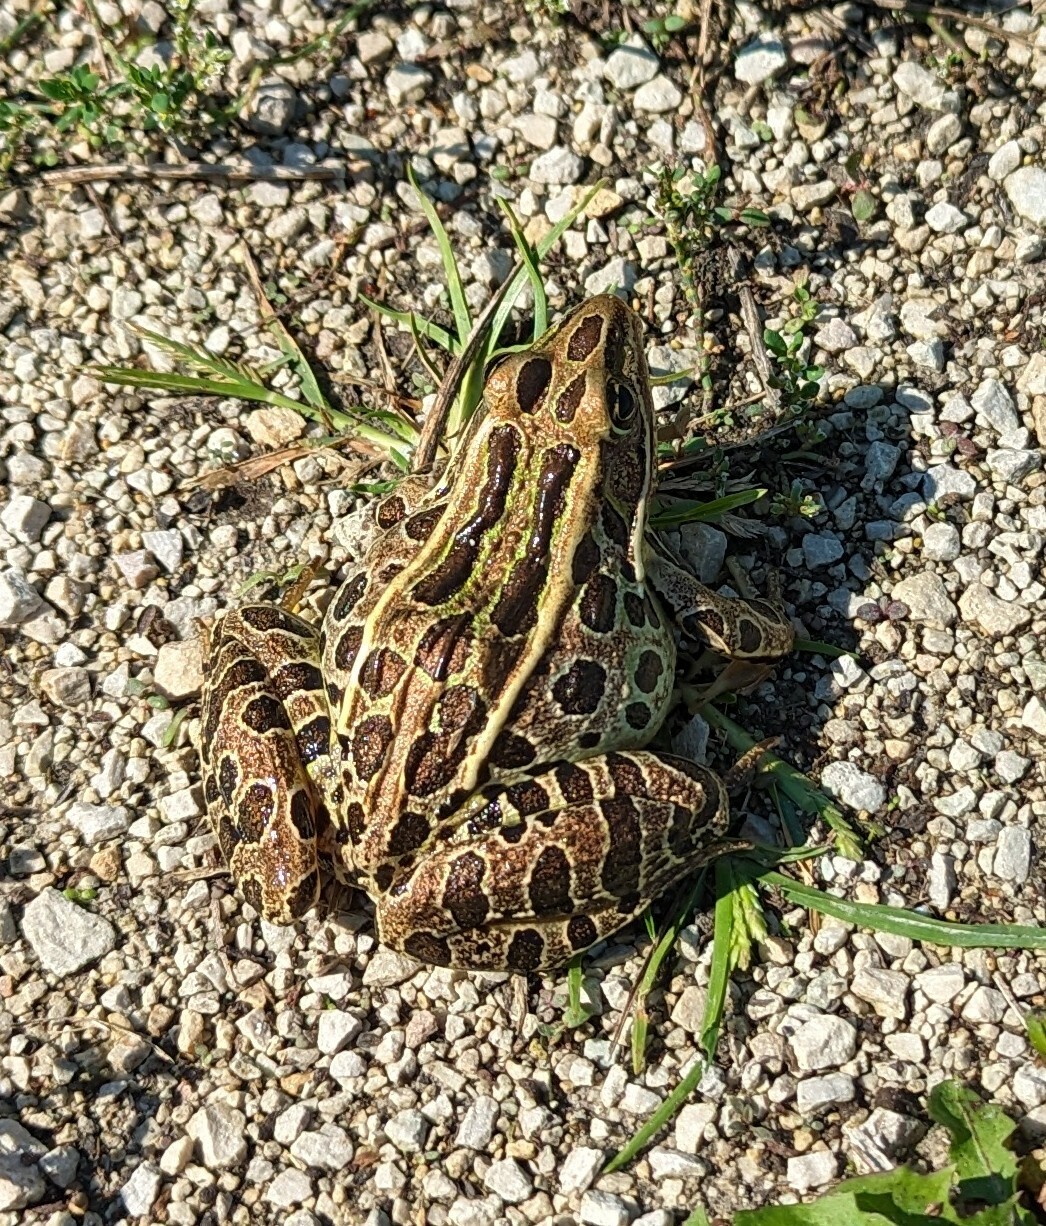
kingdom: Animalia
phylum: Chordata
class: Amphibia
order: Anura
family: Ranidae
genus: Lithobates
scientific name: Lithobates pipiens
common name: Northern leopard frog
